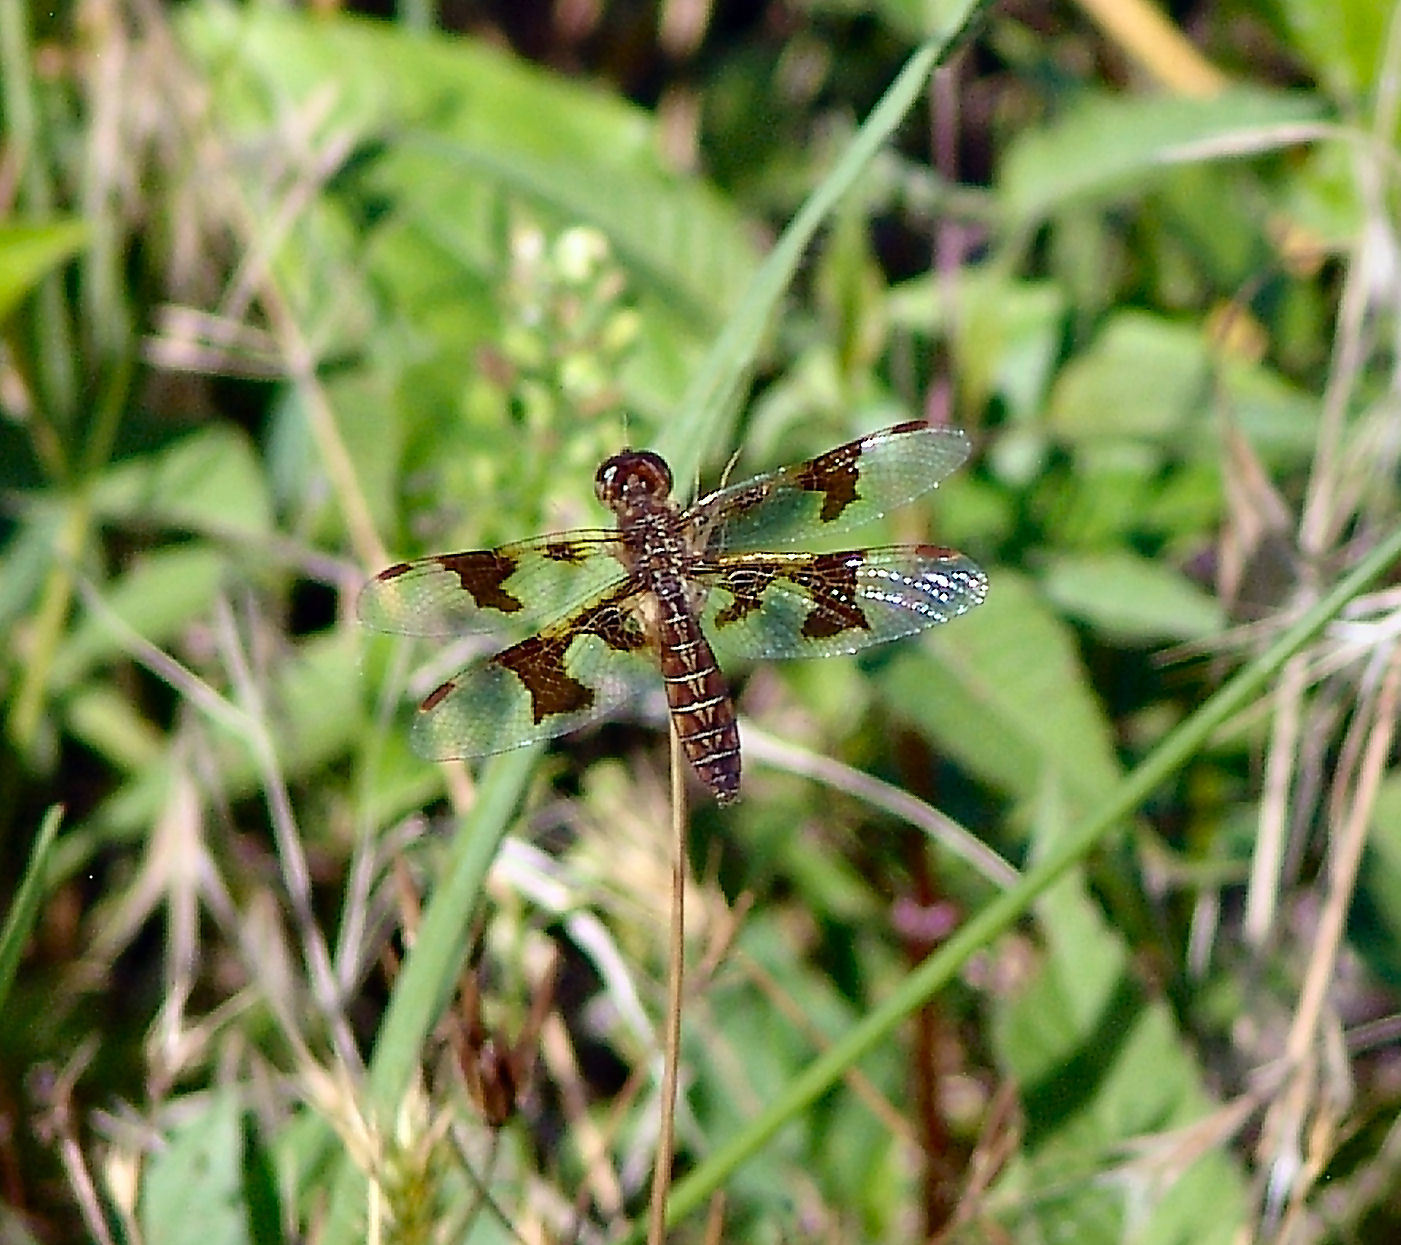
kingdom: Animalia
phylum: Arthropoda
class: Insecta
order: Odonata
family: Libellulidae
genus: Perithemis
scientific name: Perithemis tenera
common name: Eastern amberwing
